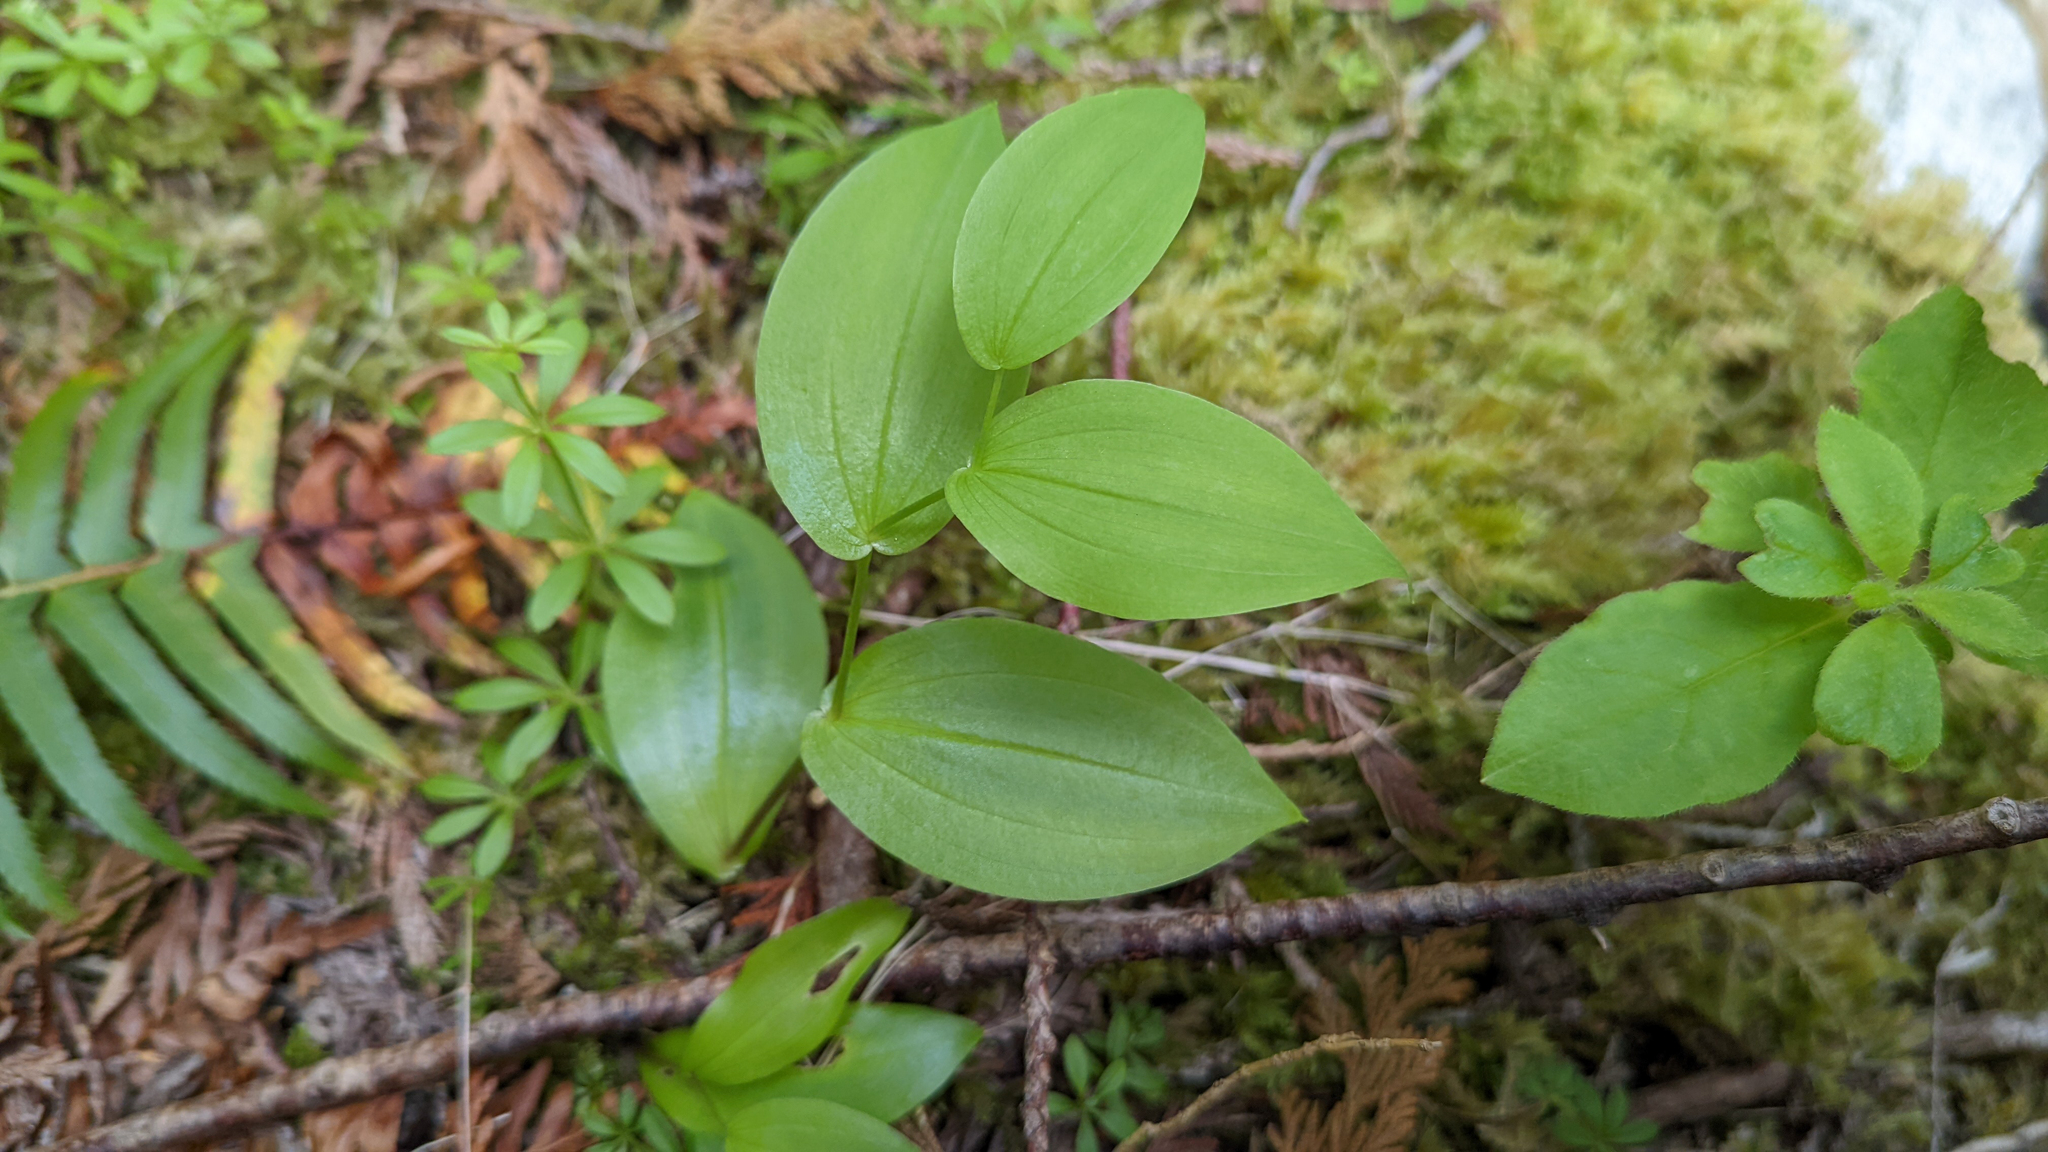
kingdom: Plantae
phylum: Tracheophyta
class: Liliopsida
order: Liliales
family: Liliaceae
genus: Streptopus
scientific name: Streptopus amplexifolius
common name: Clasp twisted stalk
